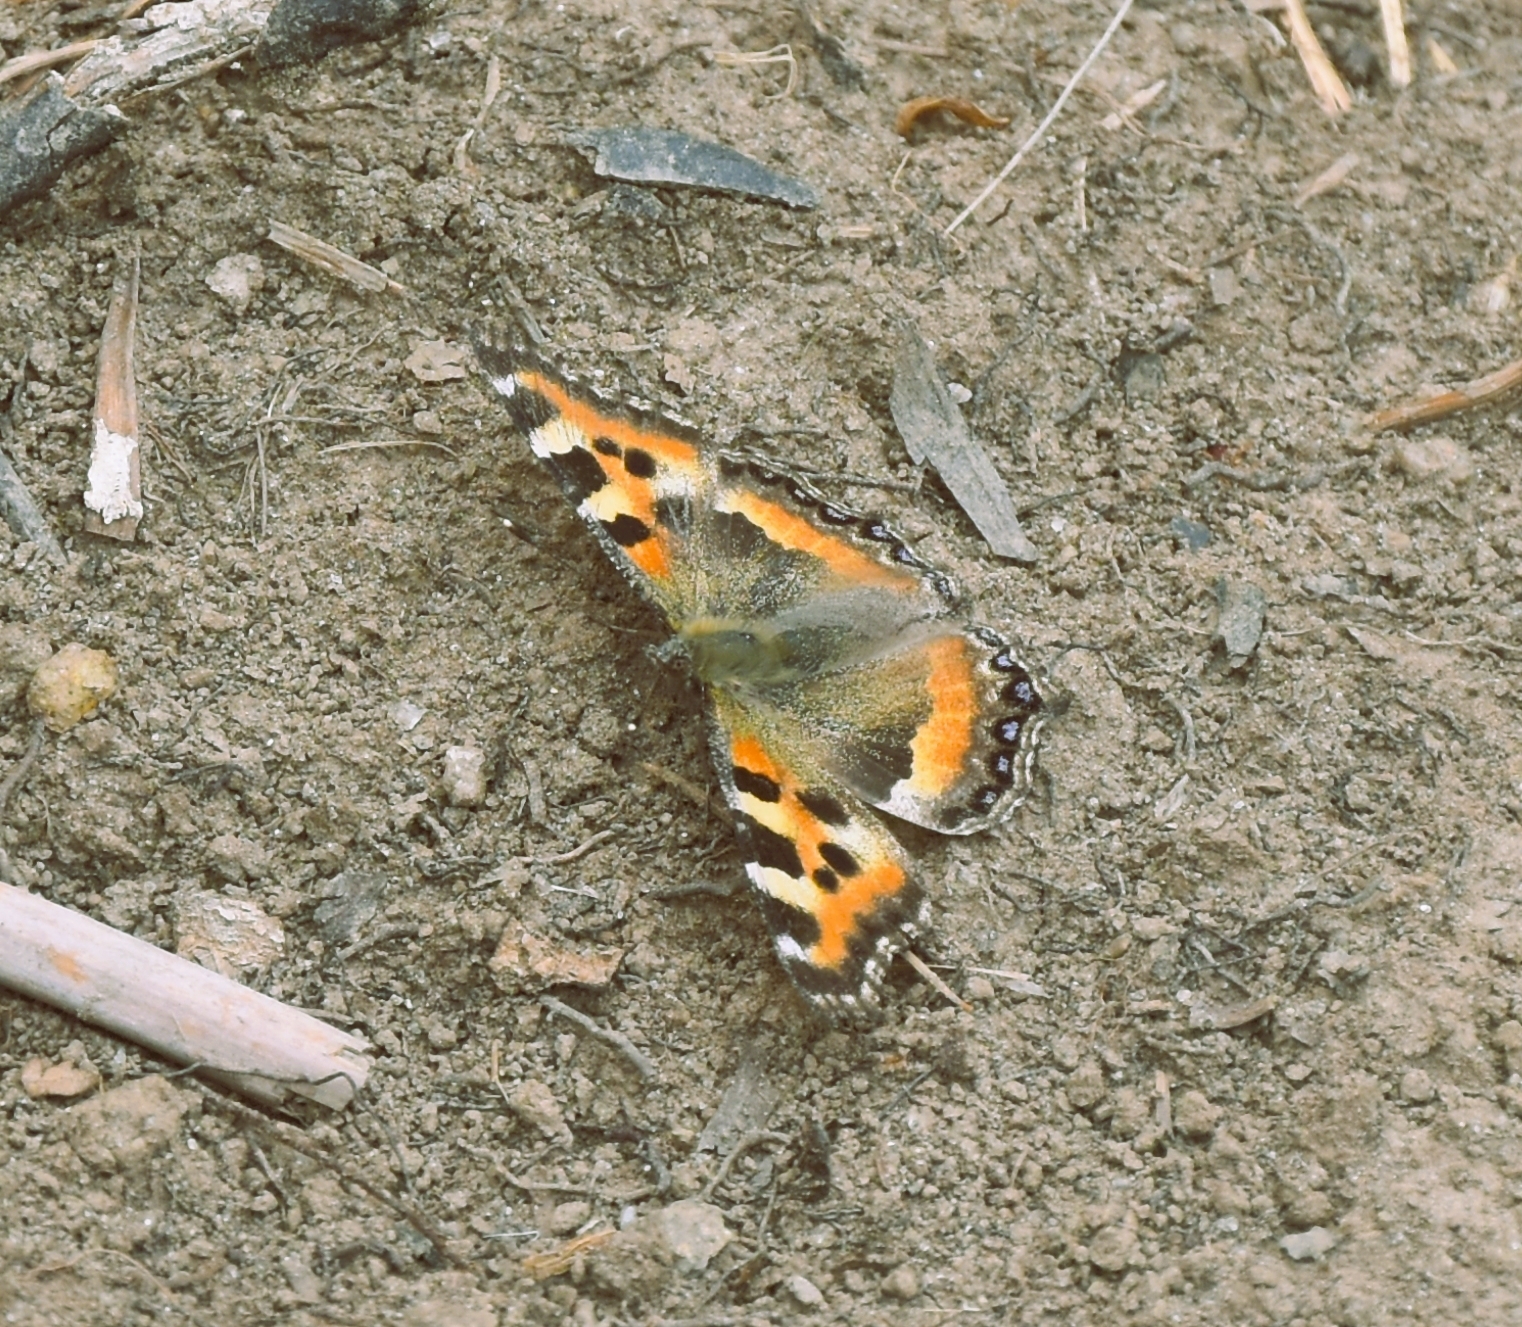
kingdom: Animalia
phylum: Arthropoda
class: Insecta
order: Lepidoptera
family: Nymphalidae
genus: Aglais
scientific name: Aglais caschmirensis
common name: Indian tortoiseshell
